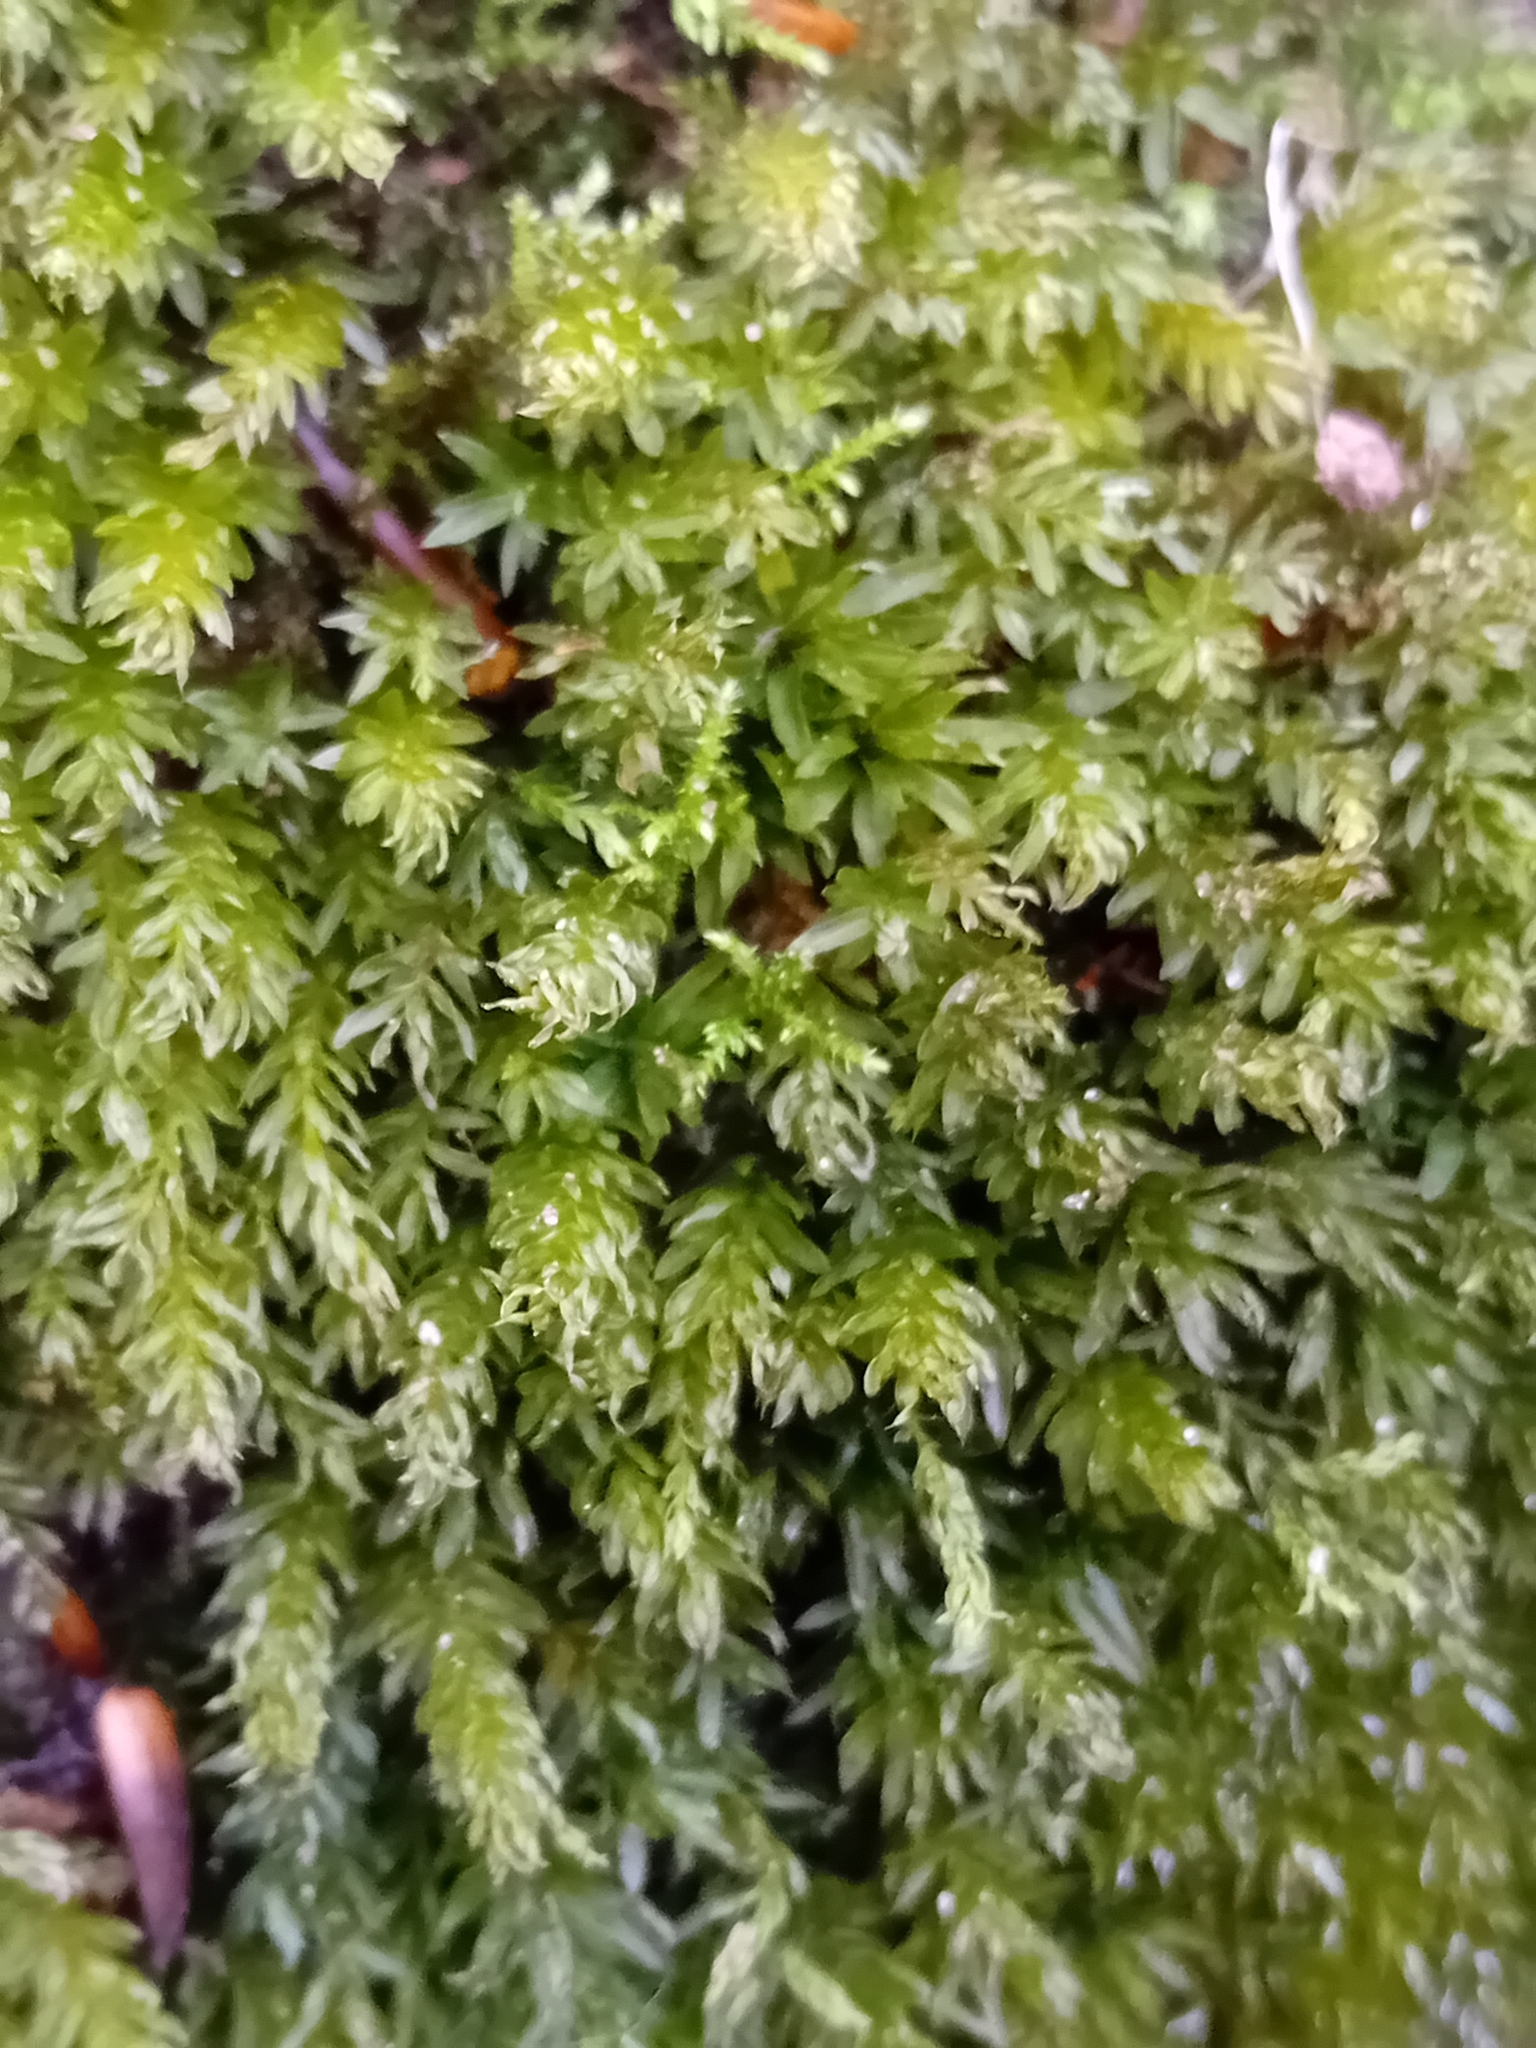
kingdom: Plantae
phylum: Bryophyta
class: Bryopsida
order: Bryales
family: Mniaceae
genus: Mnium
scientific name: Mnium hornum
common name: Swan's-neck leafy moss
